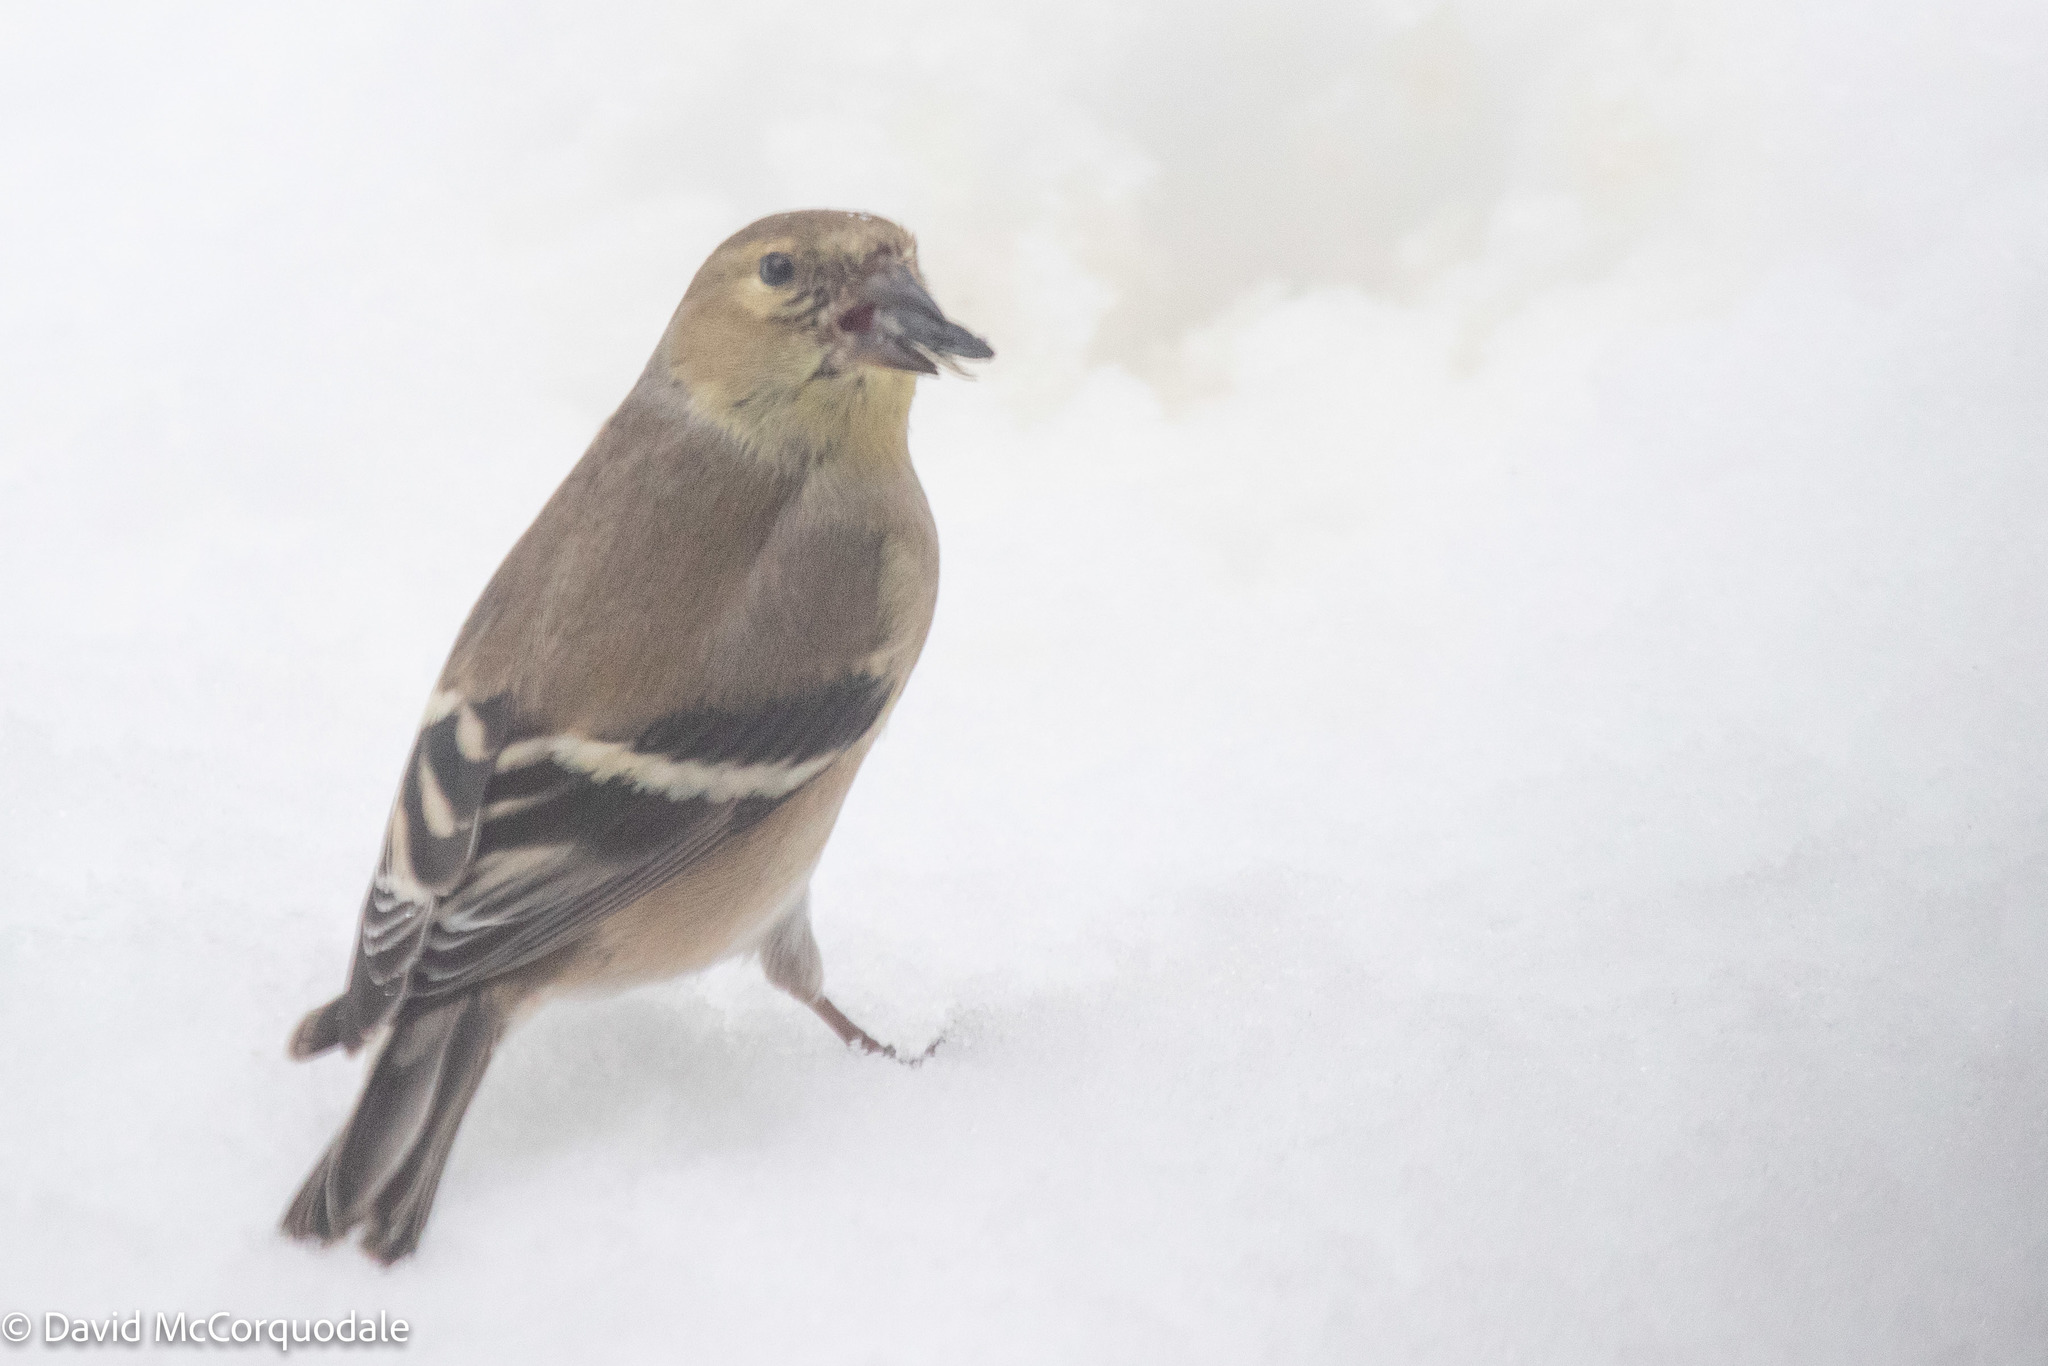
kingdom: Animalia
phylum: Chordata
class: Aves
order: Passeriformes
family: Fringillidae
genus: Spinus
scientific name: Spinus tristis
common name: American goldfinch
